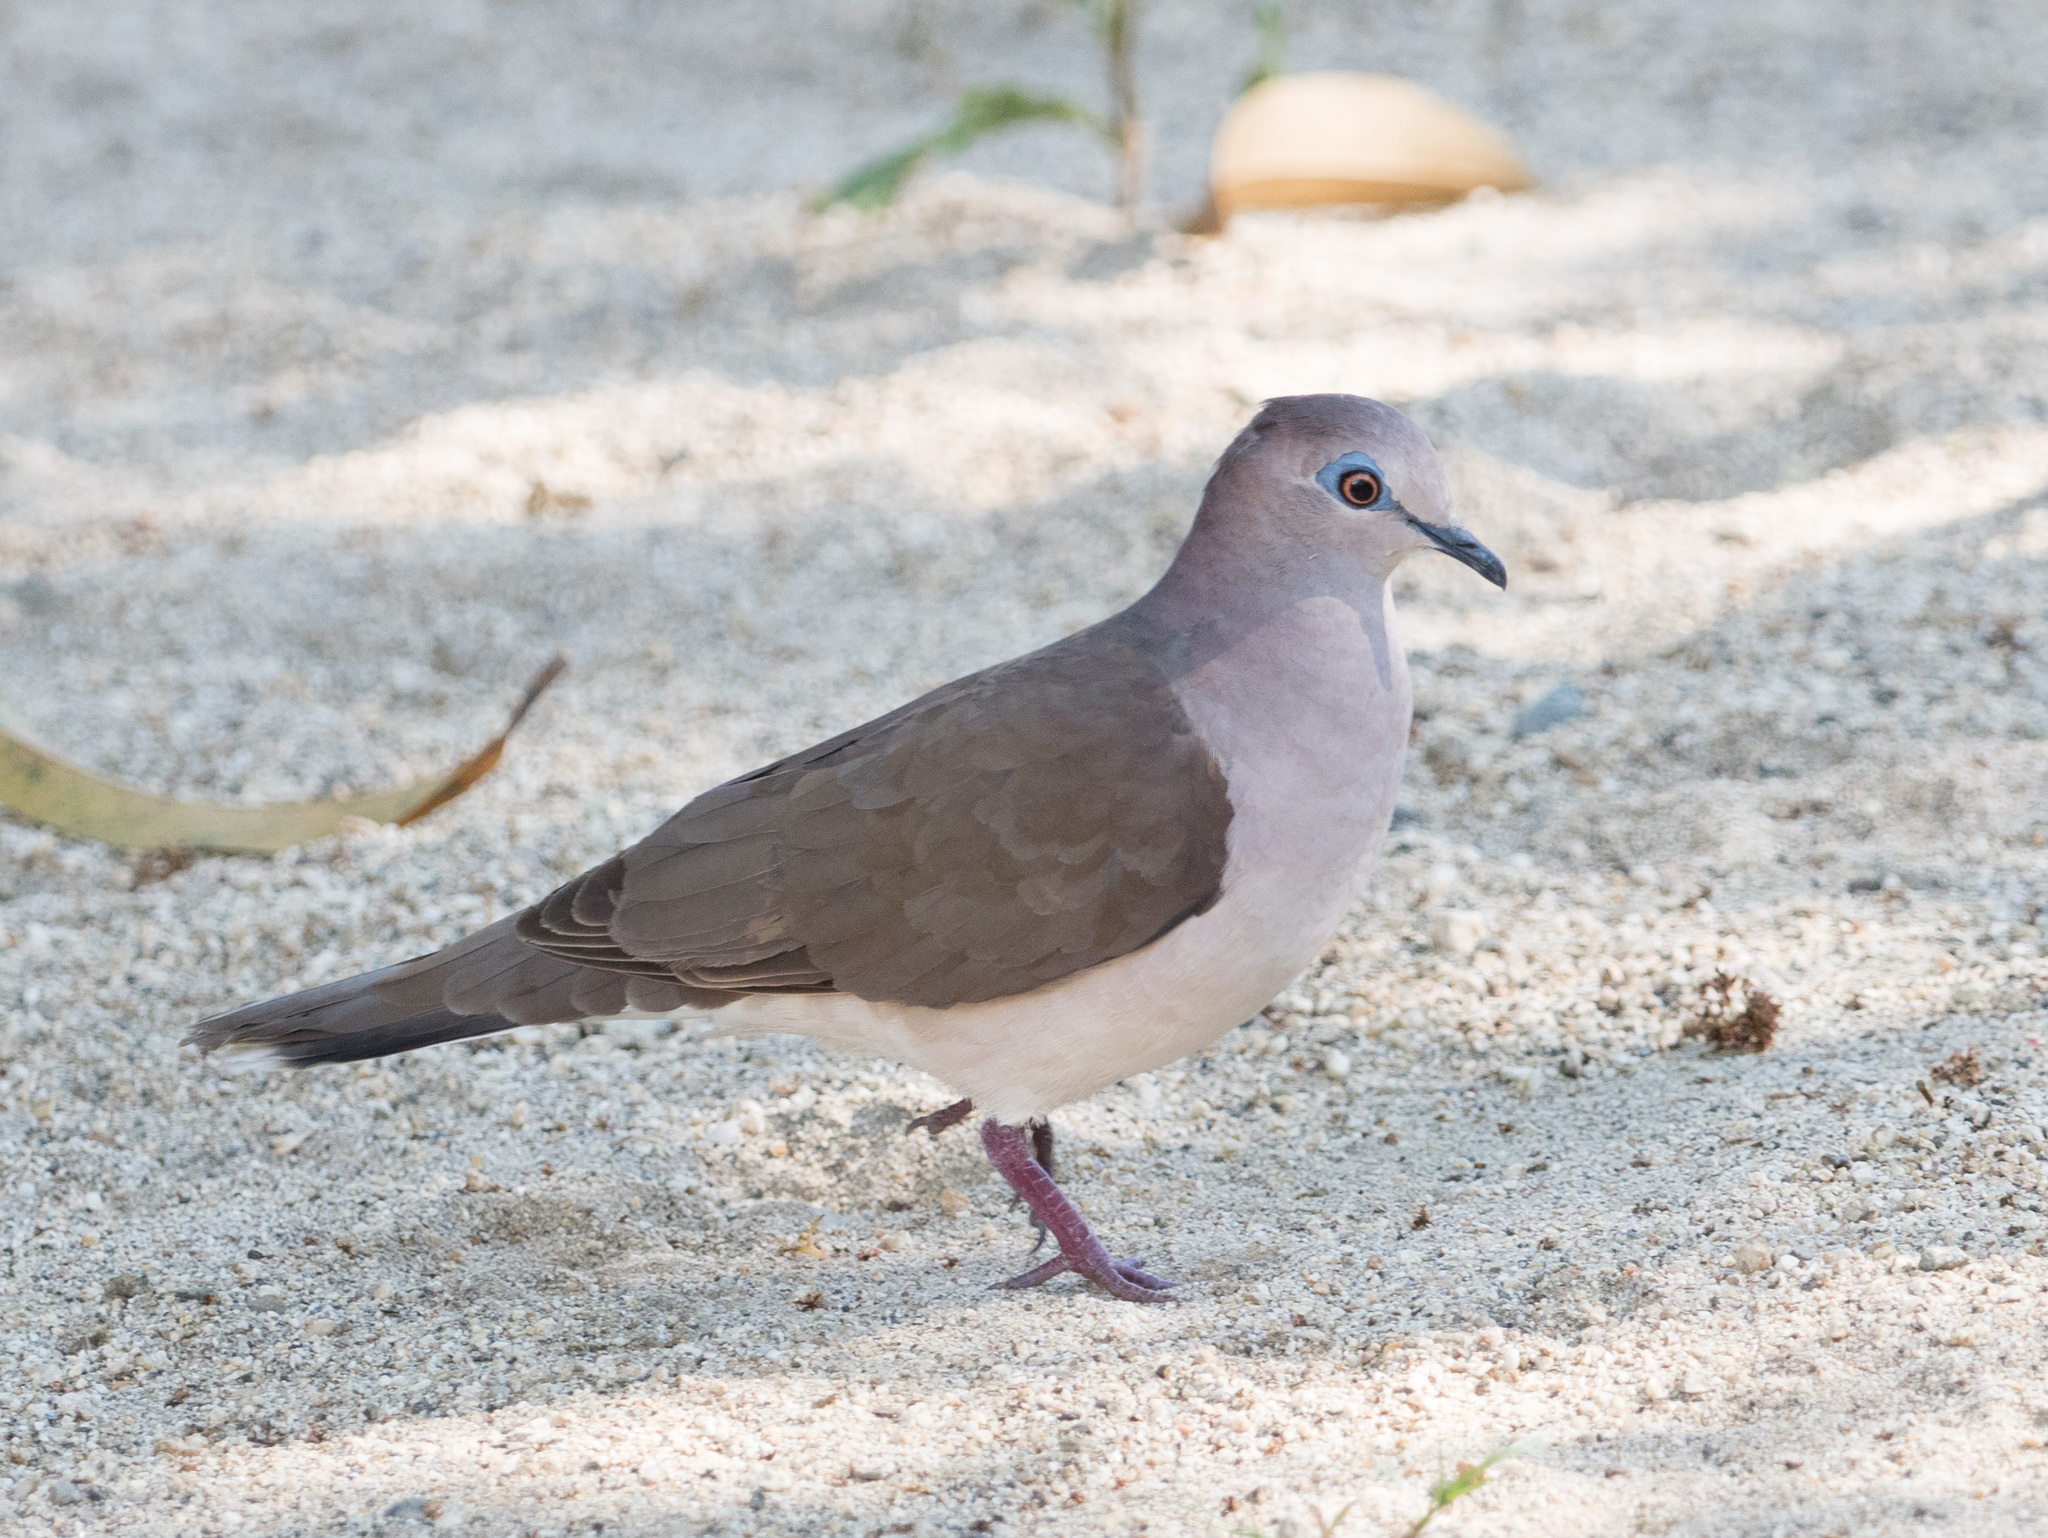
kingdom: Animalia
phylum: Chordata
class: Aves
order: Columbiformes
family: Columbidae
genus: Leptotila
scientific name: Leptotila verreauxi
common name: White-tipped dove
